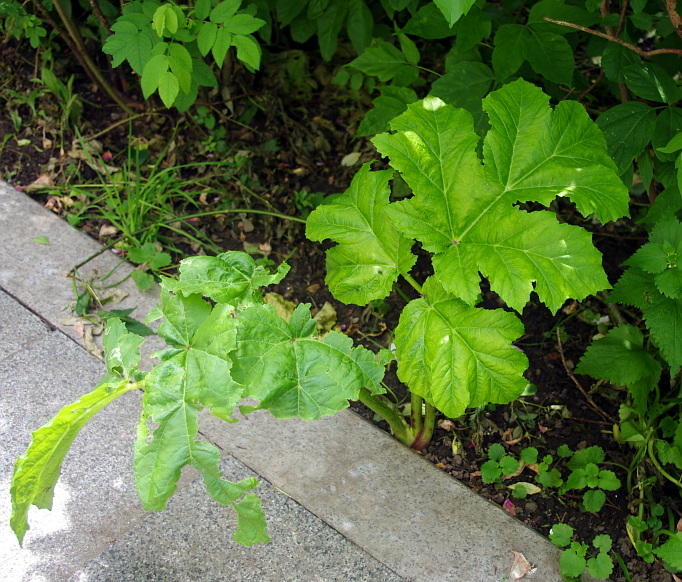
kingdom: Plantae
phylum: Tracheophyta
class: Magnoliopsida
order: Apiales
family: Apiaceae
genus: Heracleum
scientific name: Heracleum sosnowskyi
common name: Sosnowsky's hogweed
